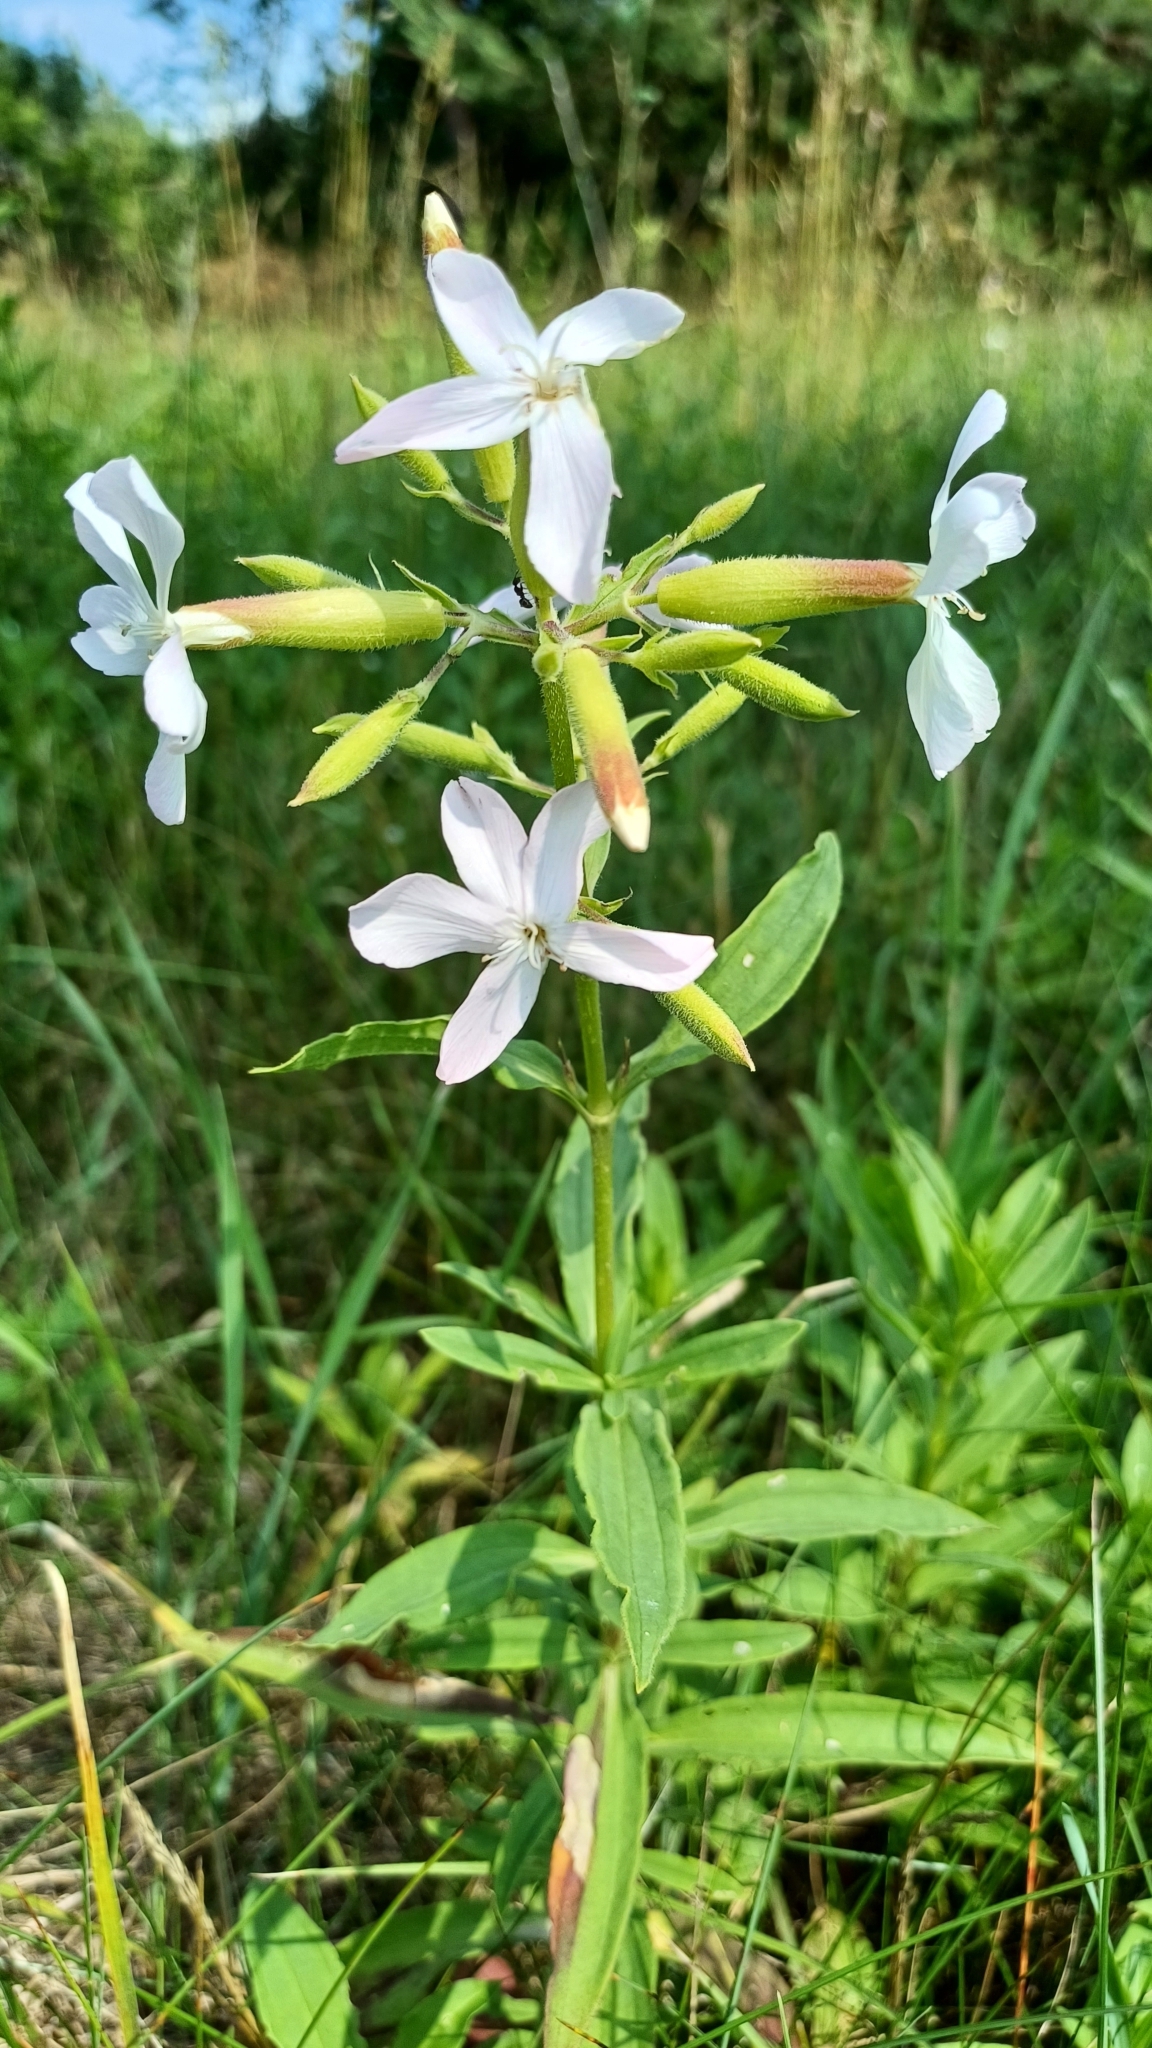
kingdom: Plantae
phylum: Tracheophyta
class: Magnoliopsida
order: Caryophyllales
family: Caryophyllaceae
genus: Saponaria
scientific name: Saponaria officinalis
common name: Soapwort
